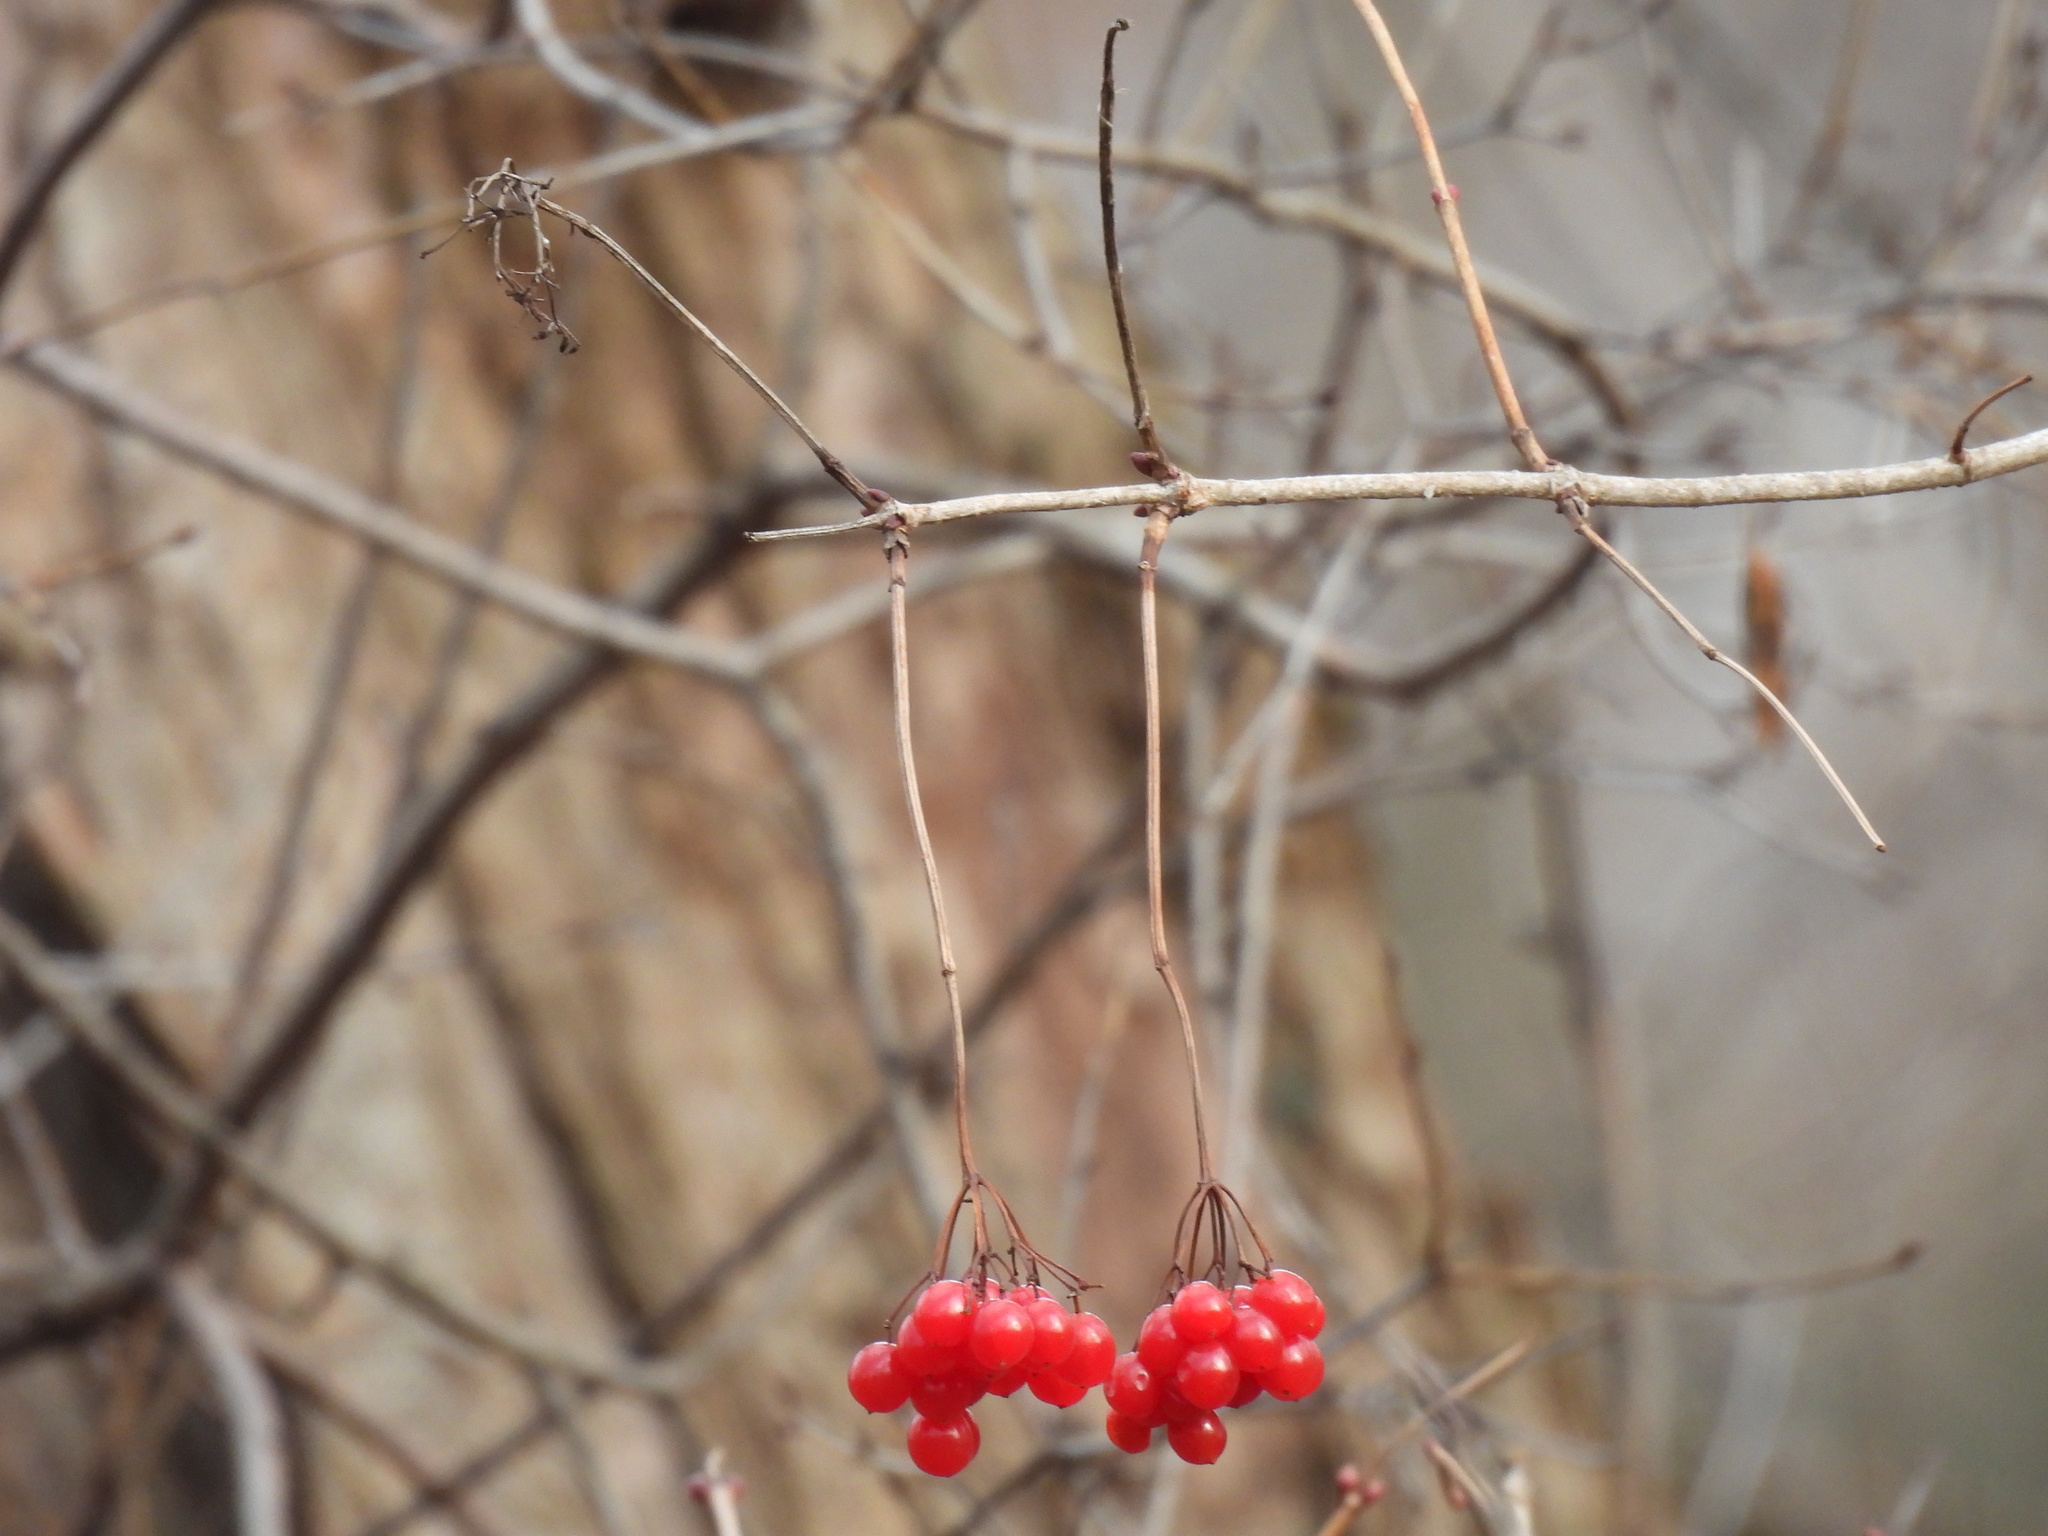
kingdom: Plantae
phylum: Tracheophyta
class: Magnoliopsida
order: Dipsacales
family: Viburnaceae
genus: Viburnum
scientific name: Viburnum opulus
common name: Guelder-rose
